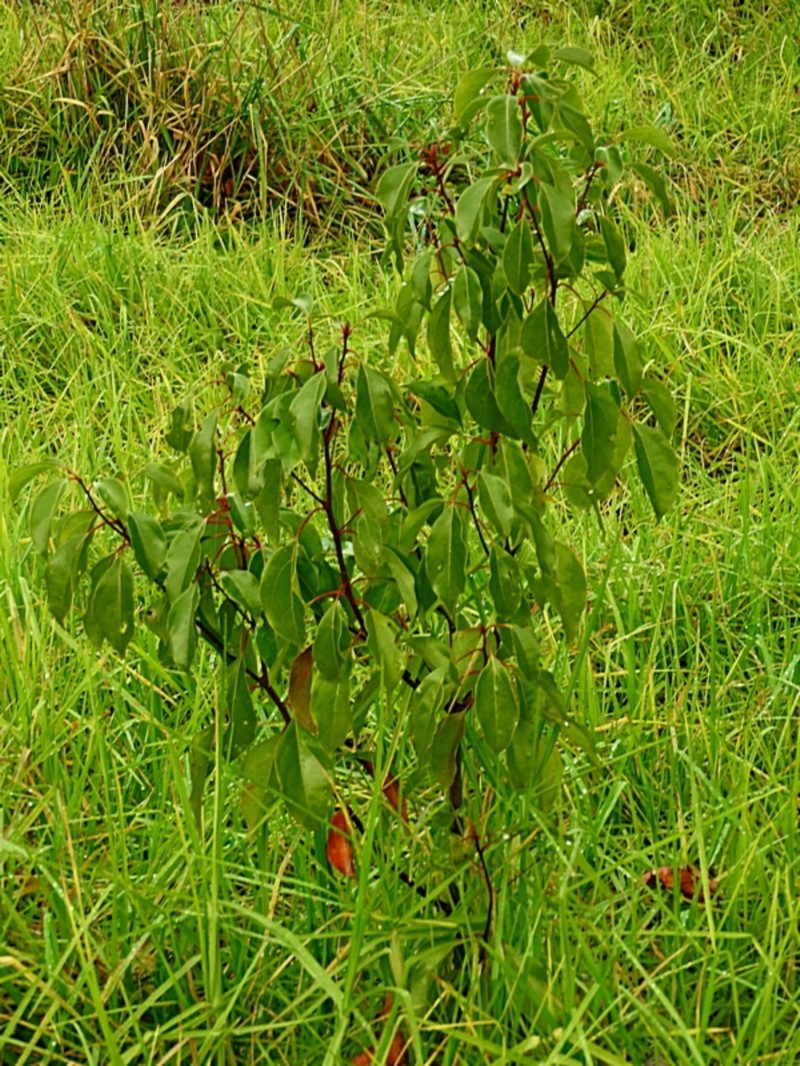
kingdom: Plantae
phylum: Tracheophyta
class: Magnoliopsida
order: Laurales
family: Lauraceae
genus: Cinnamomum
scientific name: Cinnamomum camphora
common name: Camphortree
